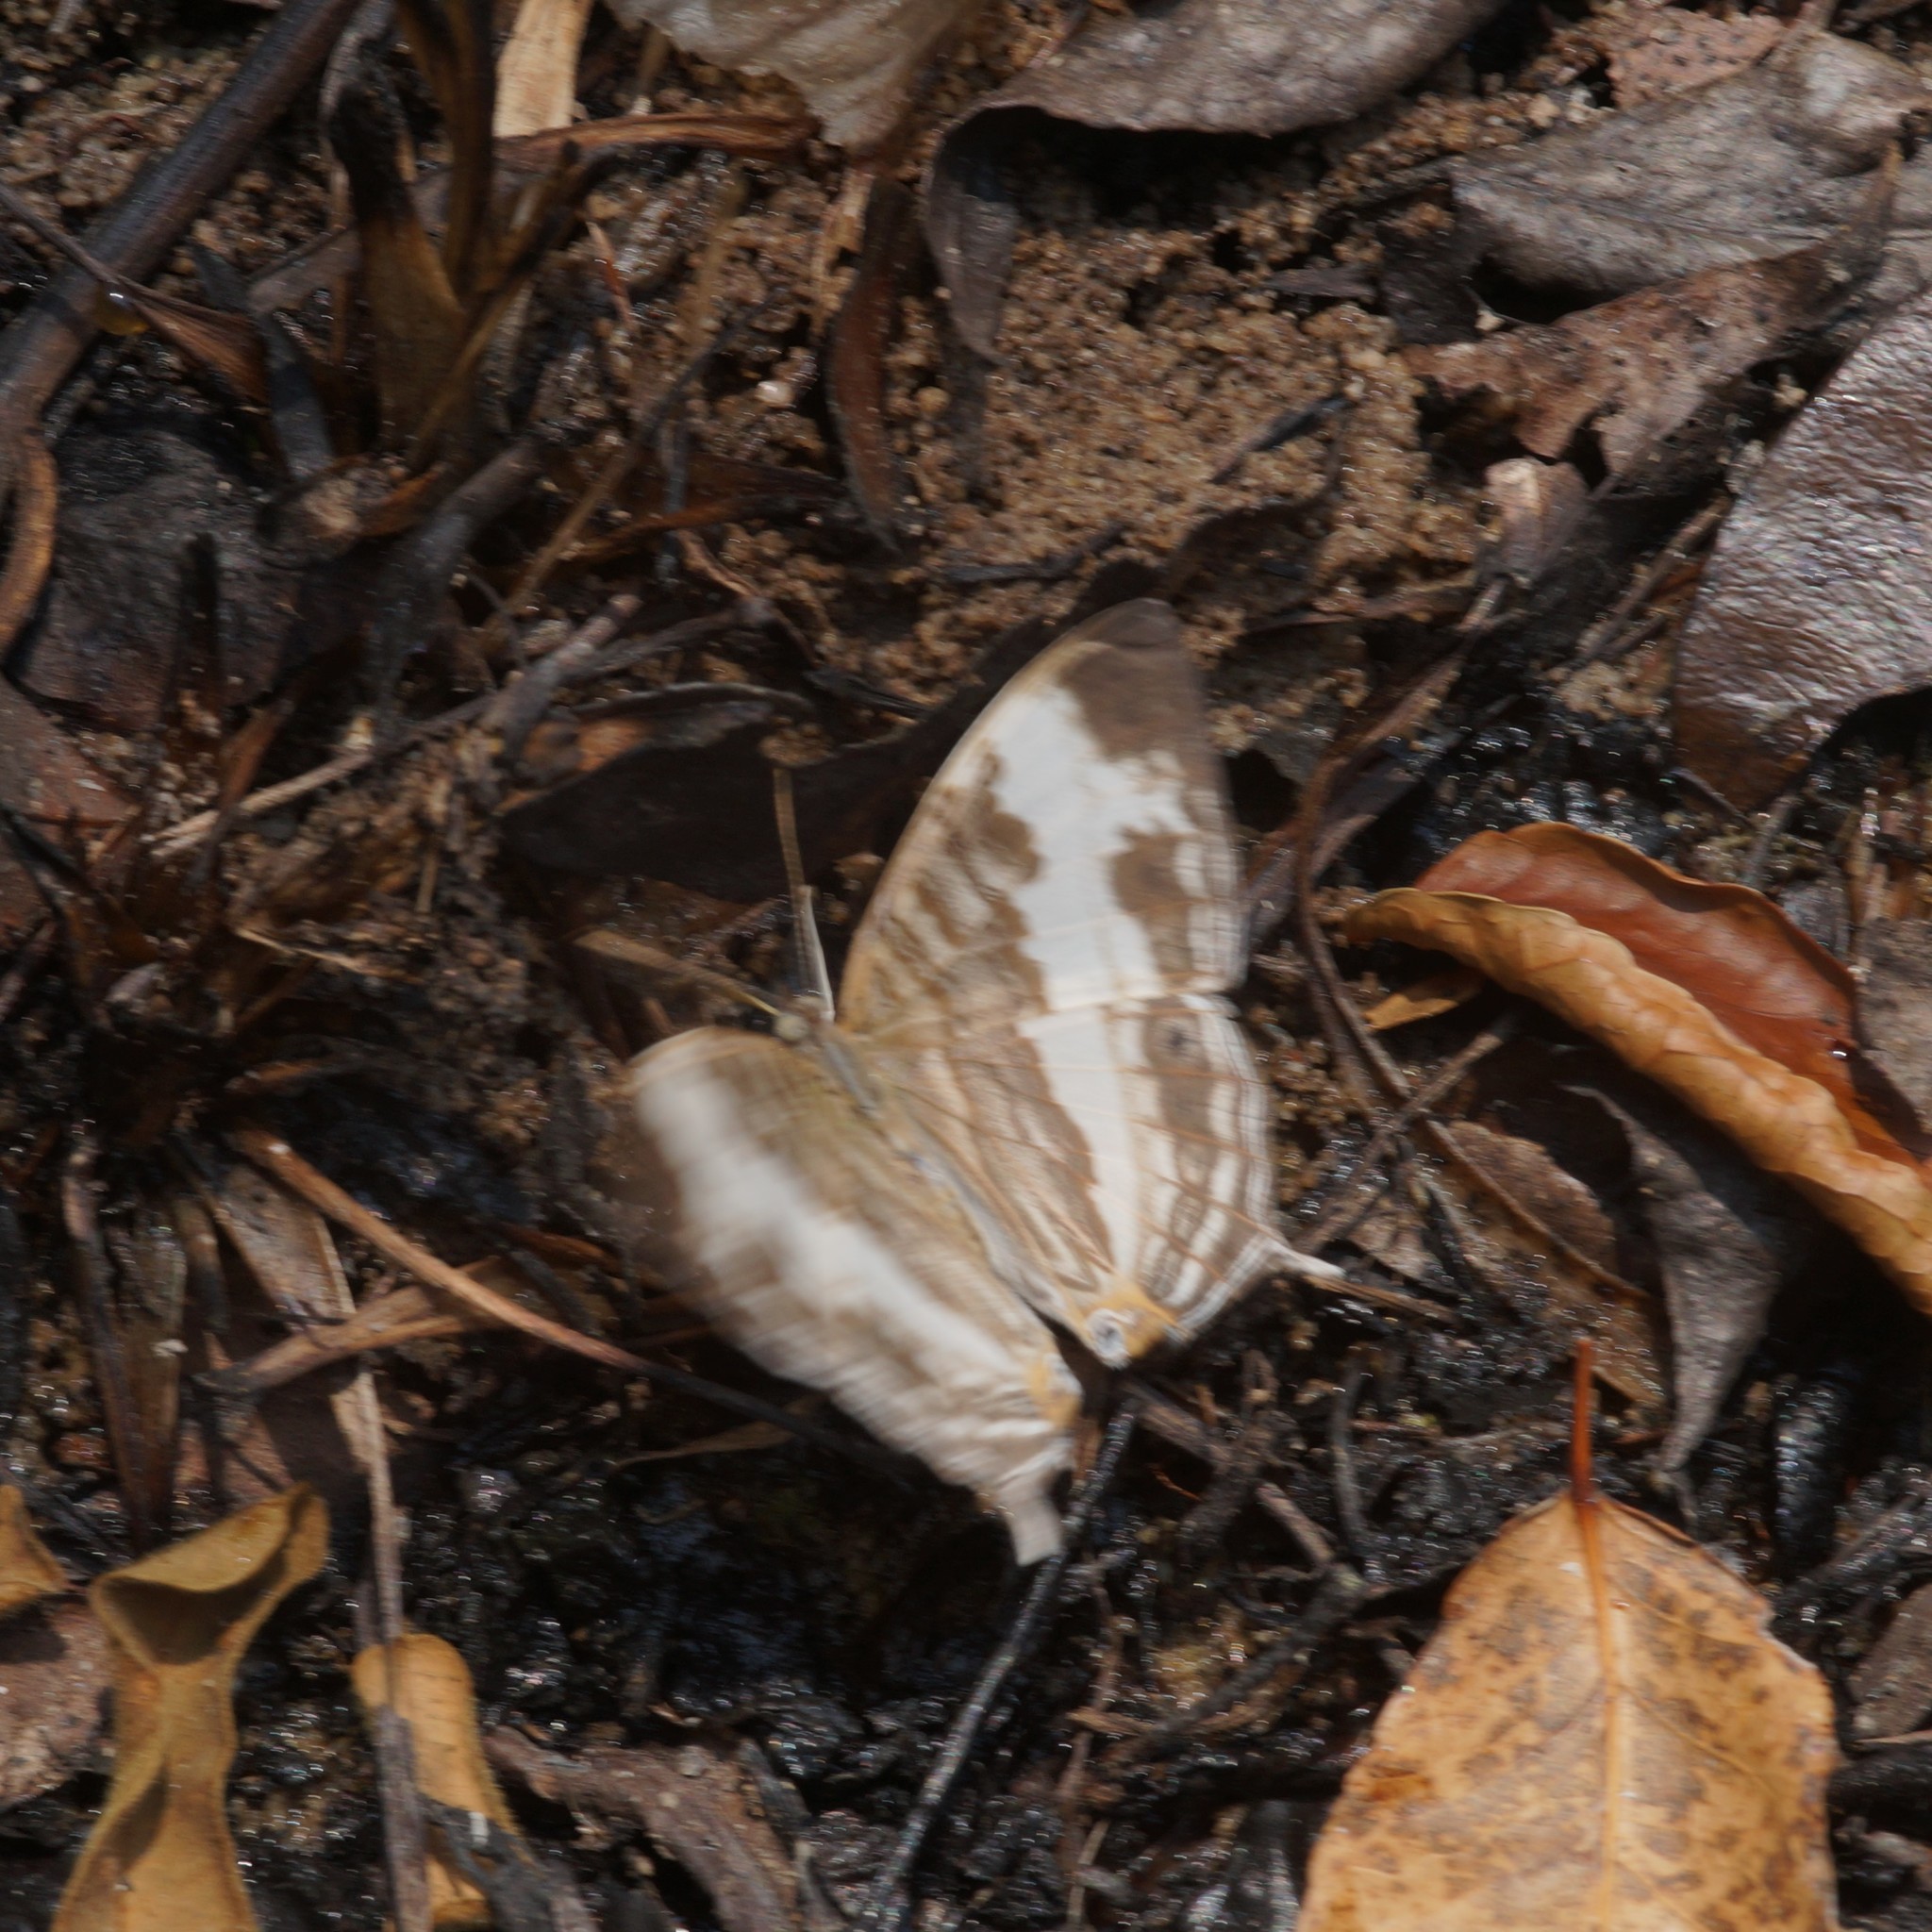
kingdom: Animalia
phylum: Arthropoda
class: Insecta
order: Lepidoptera
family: Nymphalidae
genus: Cyrestis
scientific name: Cyrestis cocles
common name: Marbled map
